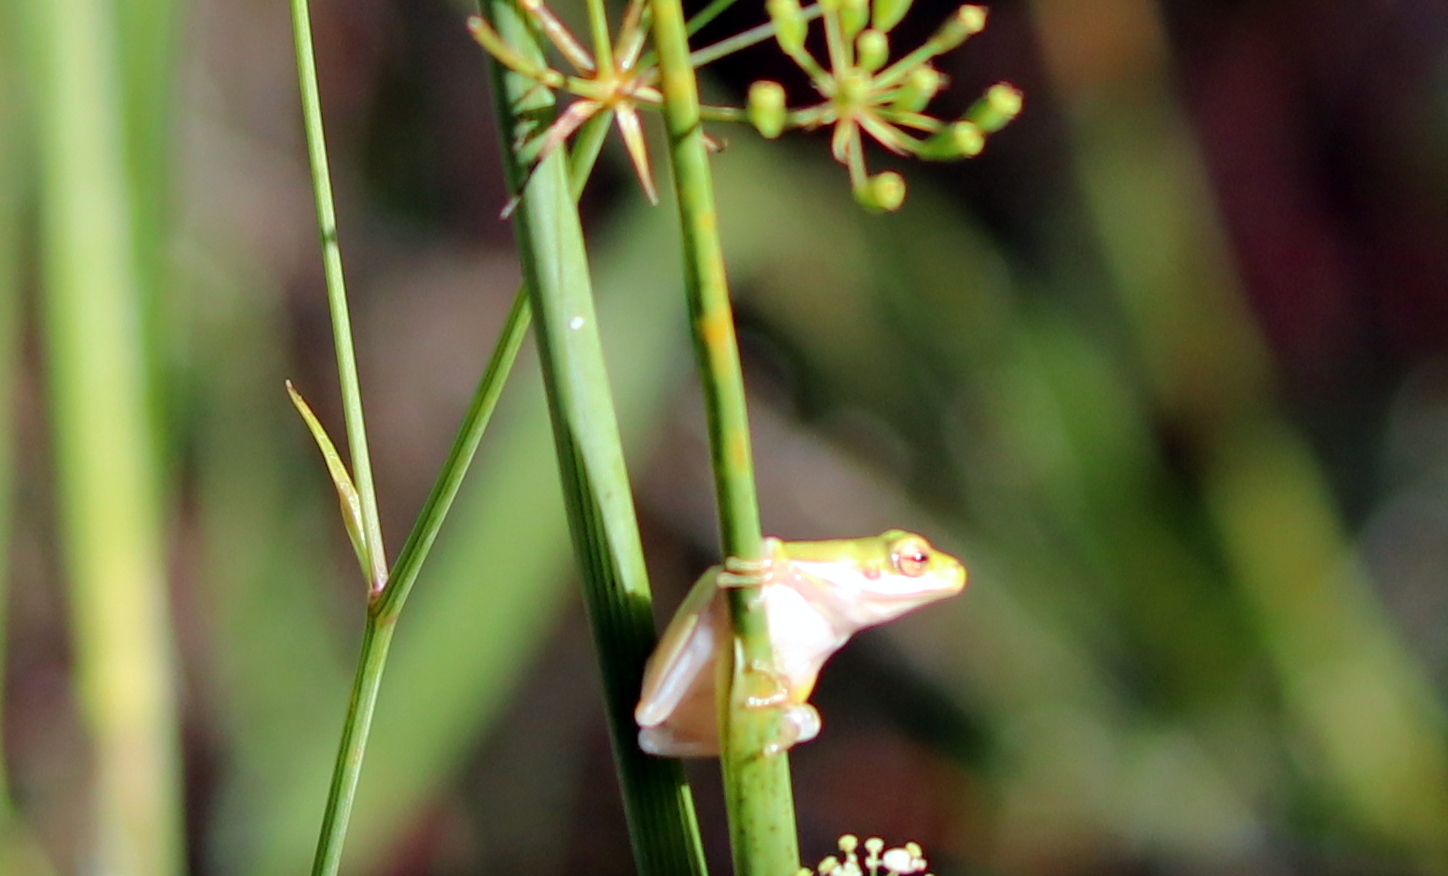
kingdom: Animalia
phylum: Chordata
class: Amphibia
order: Anura
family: Hylidae
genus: Dryophytes
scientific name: Dryophytes cinereus
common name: Green treefrog
